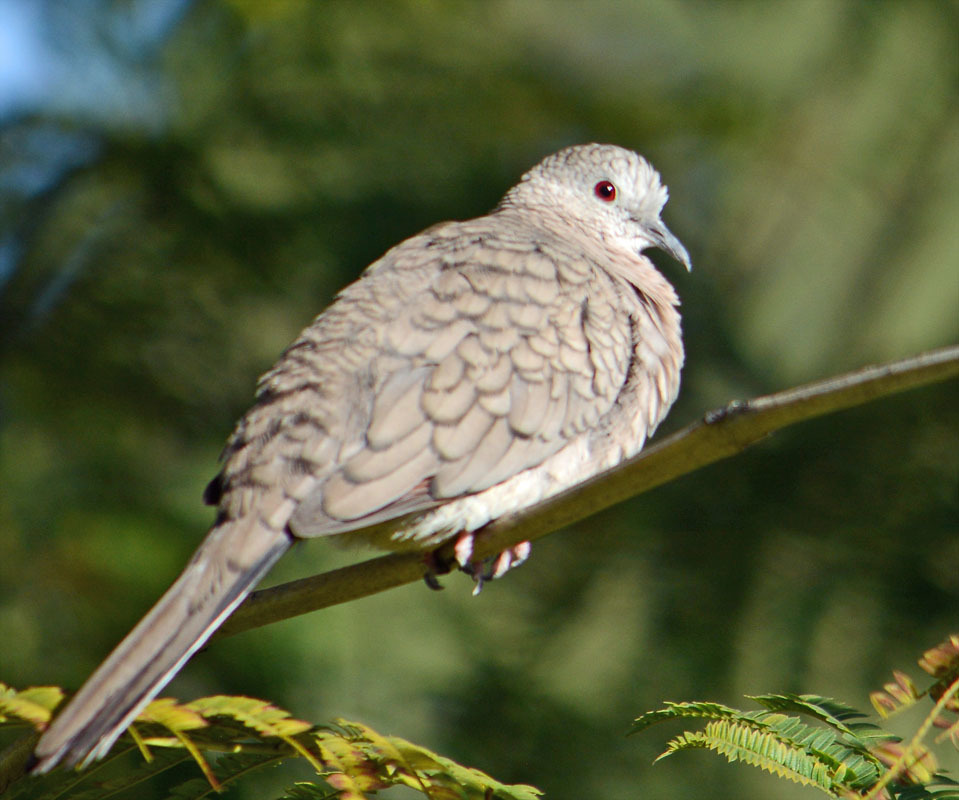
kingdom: Animalia
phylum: Chordata
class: Aves
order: Columbiformes
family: Columbidae
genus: Columbina
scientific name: Columbina inca
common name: Inca dove
